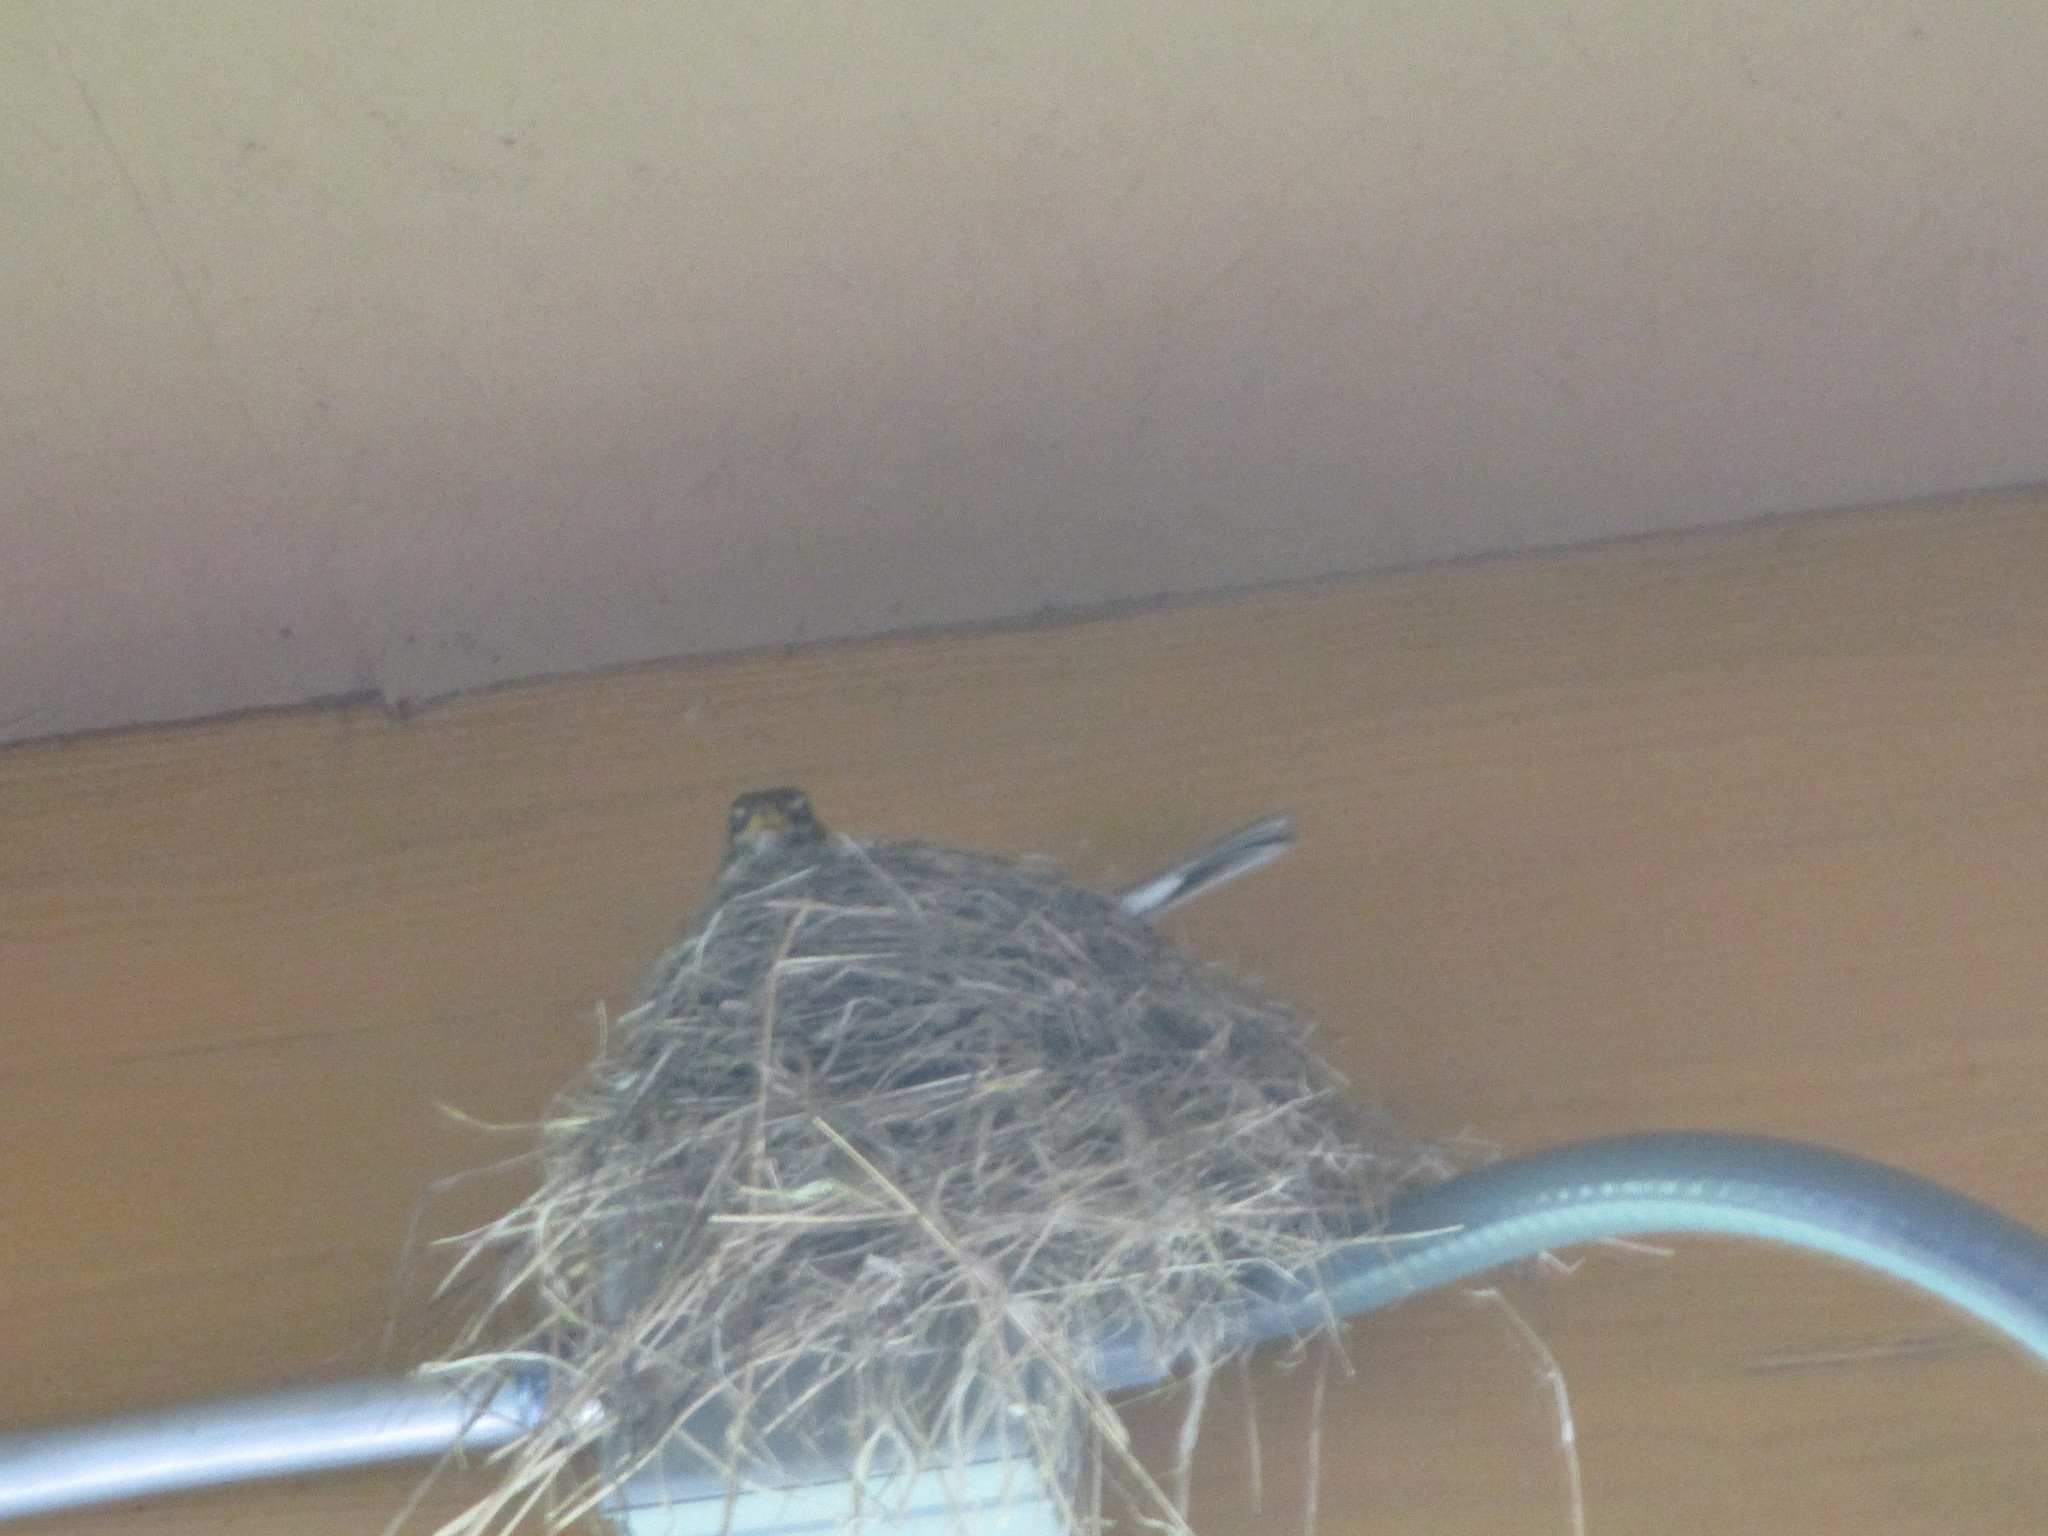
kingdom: Animalia
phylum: Chordata
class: Aves
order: Passeriformes
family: Turdidae
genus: Turdus
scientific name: Turdus migratorius
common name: American robin
